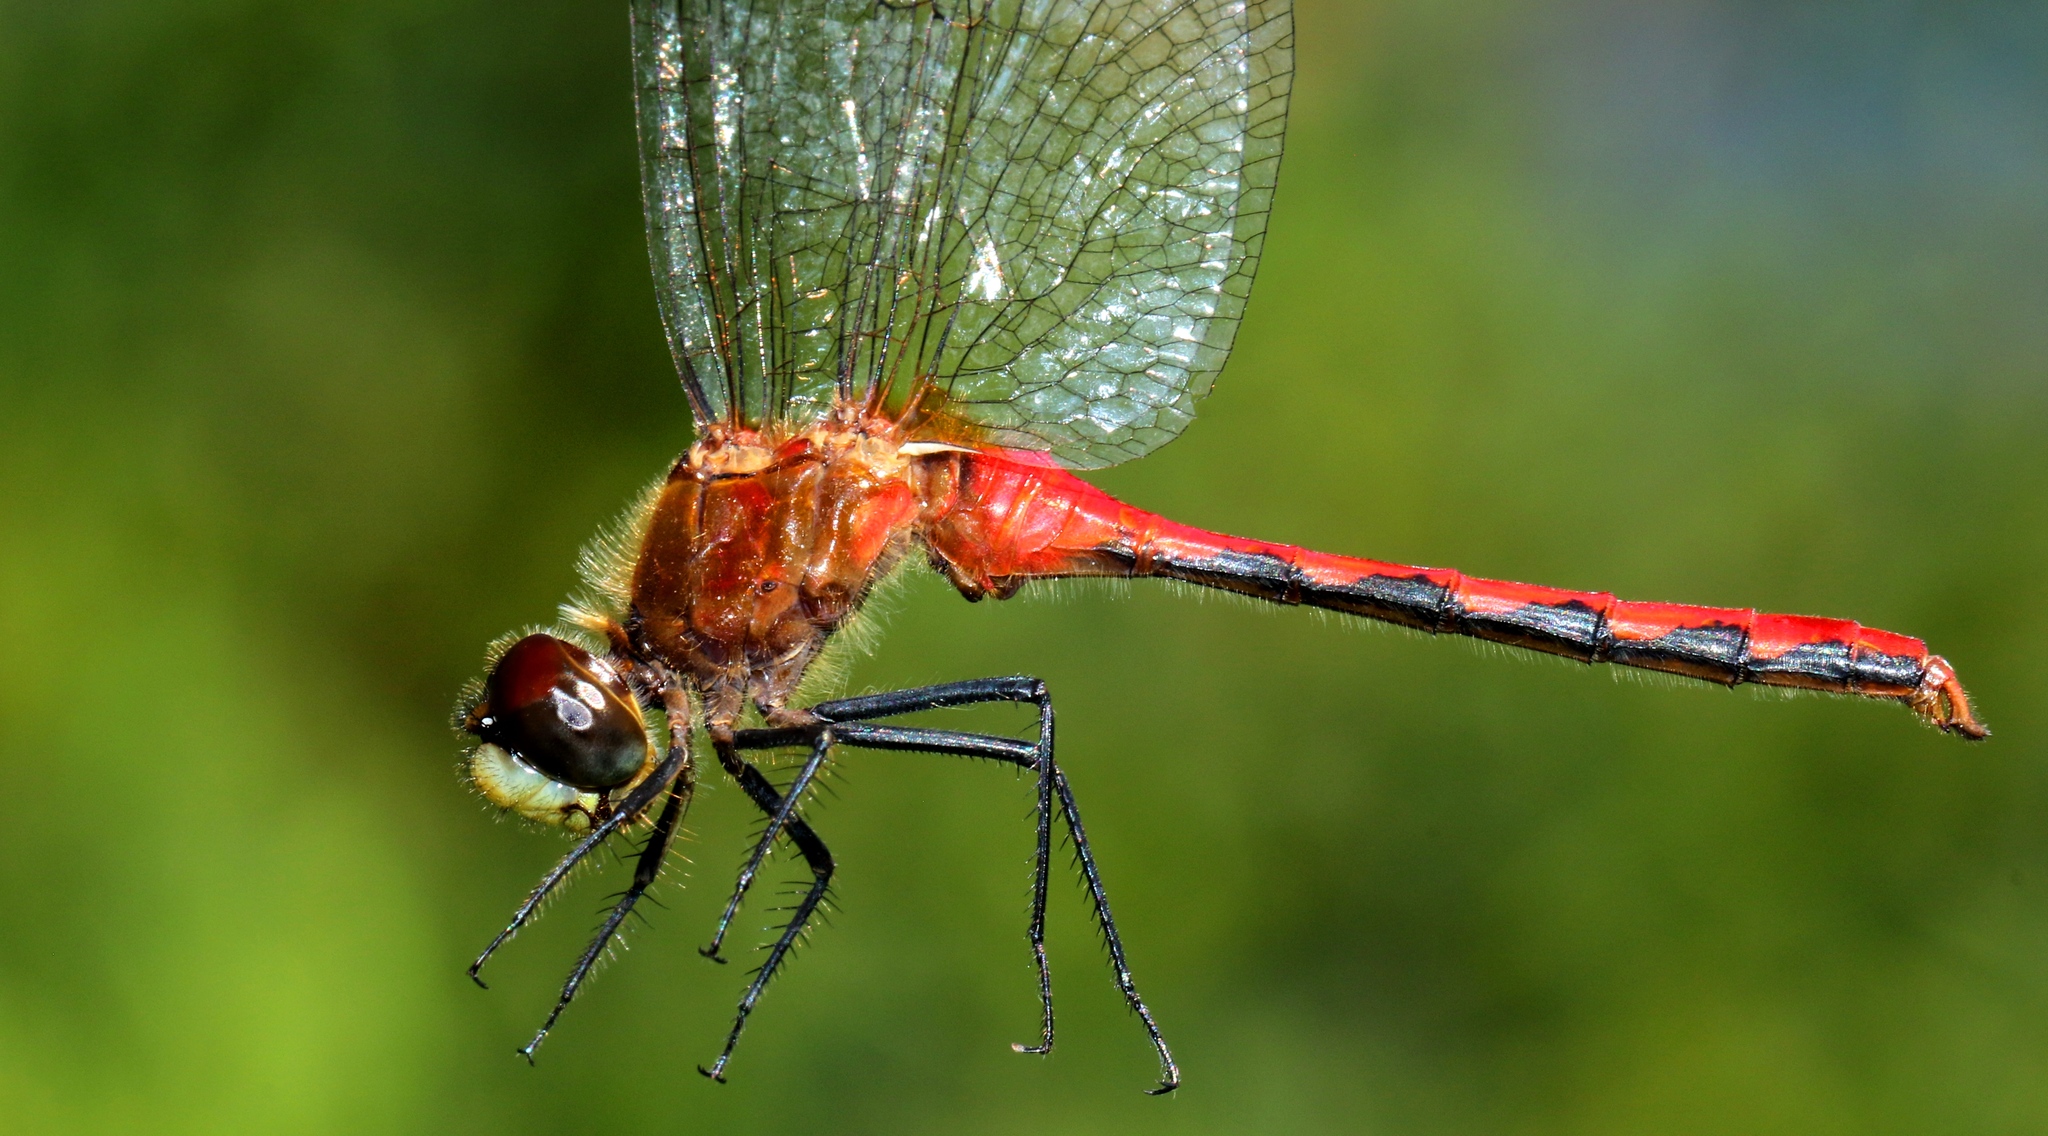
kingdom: Animalia
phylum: Arthropoda
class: Insecta
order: Odonata
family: Libellulidae
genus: Sympetrum
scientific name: Sympetrum obtrusum
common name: White-faced meadowhawk
